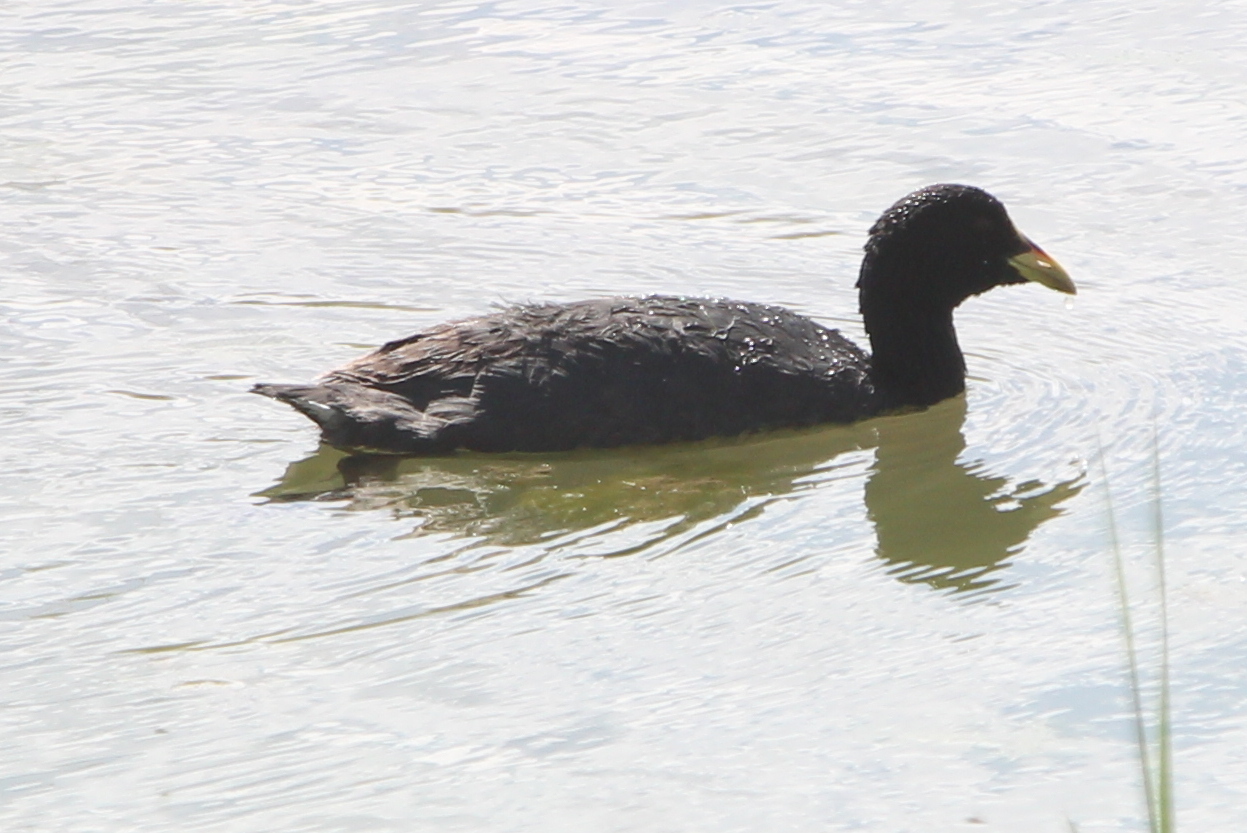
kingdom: Animalia
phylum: Chordata
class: Aves
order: Gruiformes
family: Rallidae
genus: Fulica
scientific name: Fulica armillata
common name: Red-gartered coot
